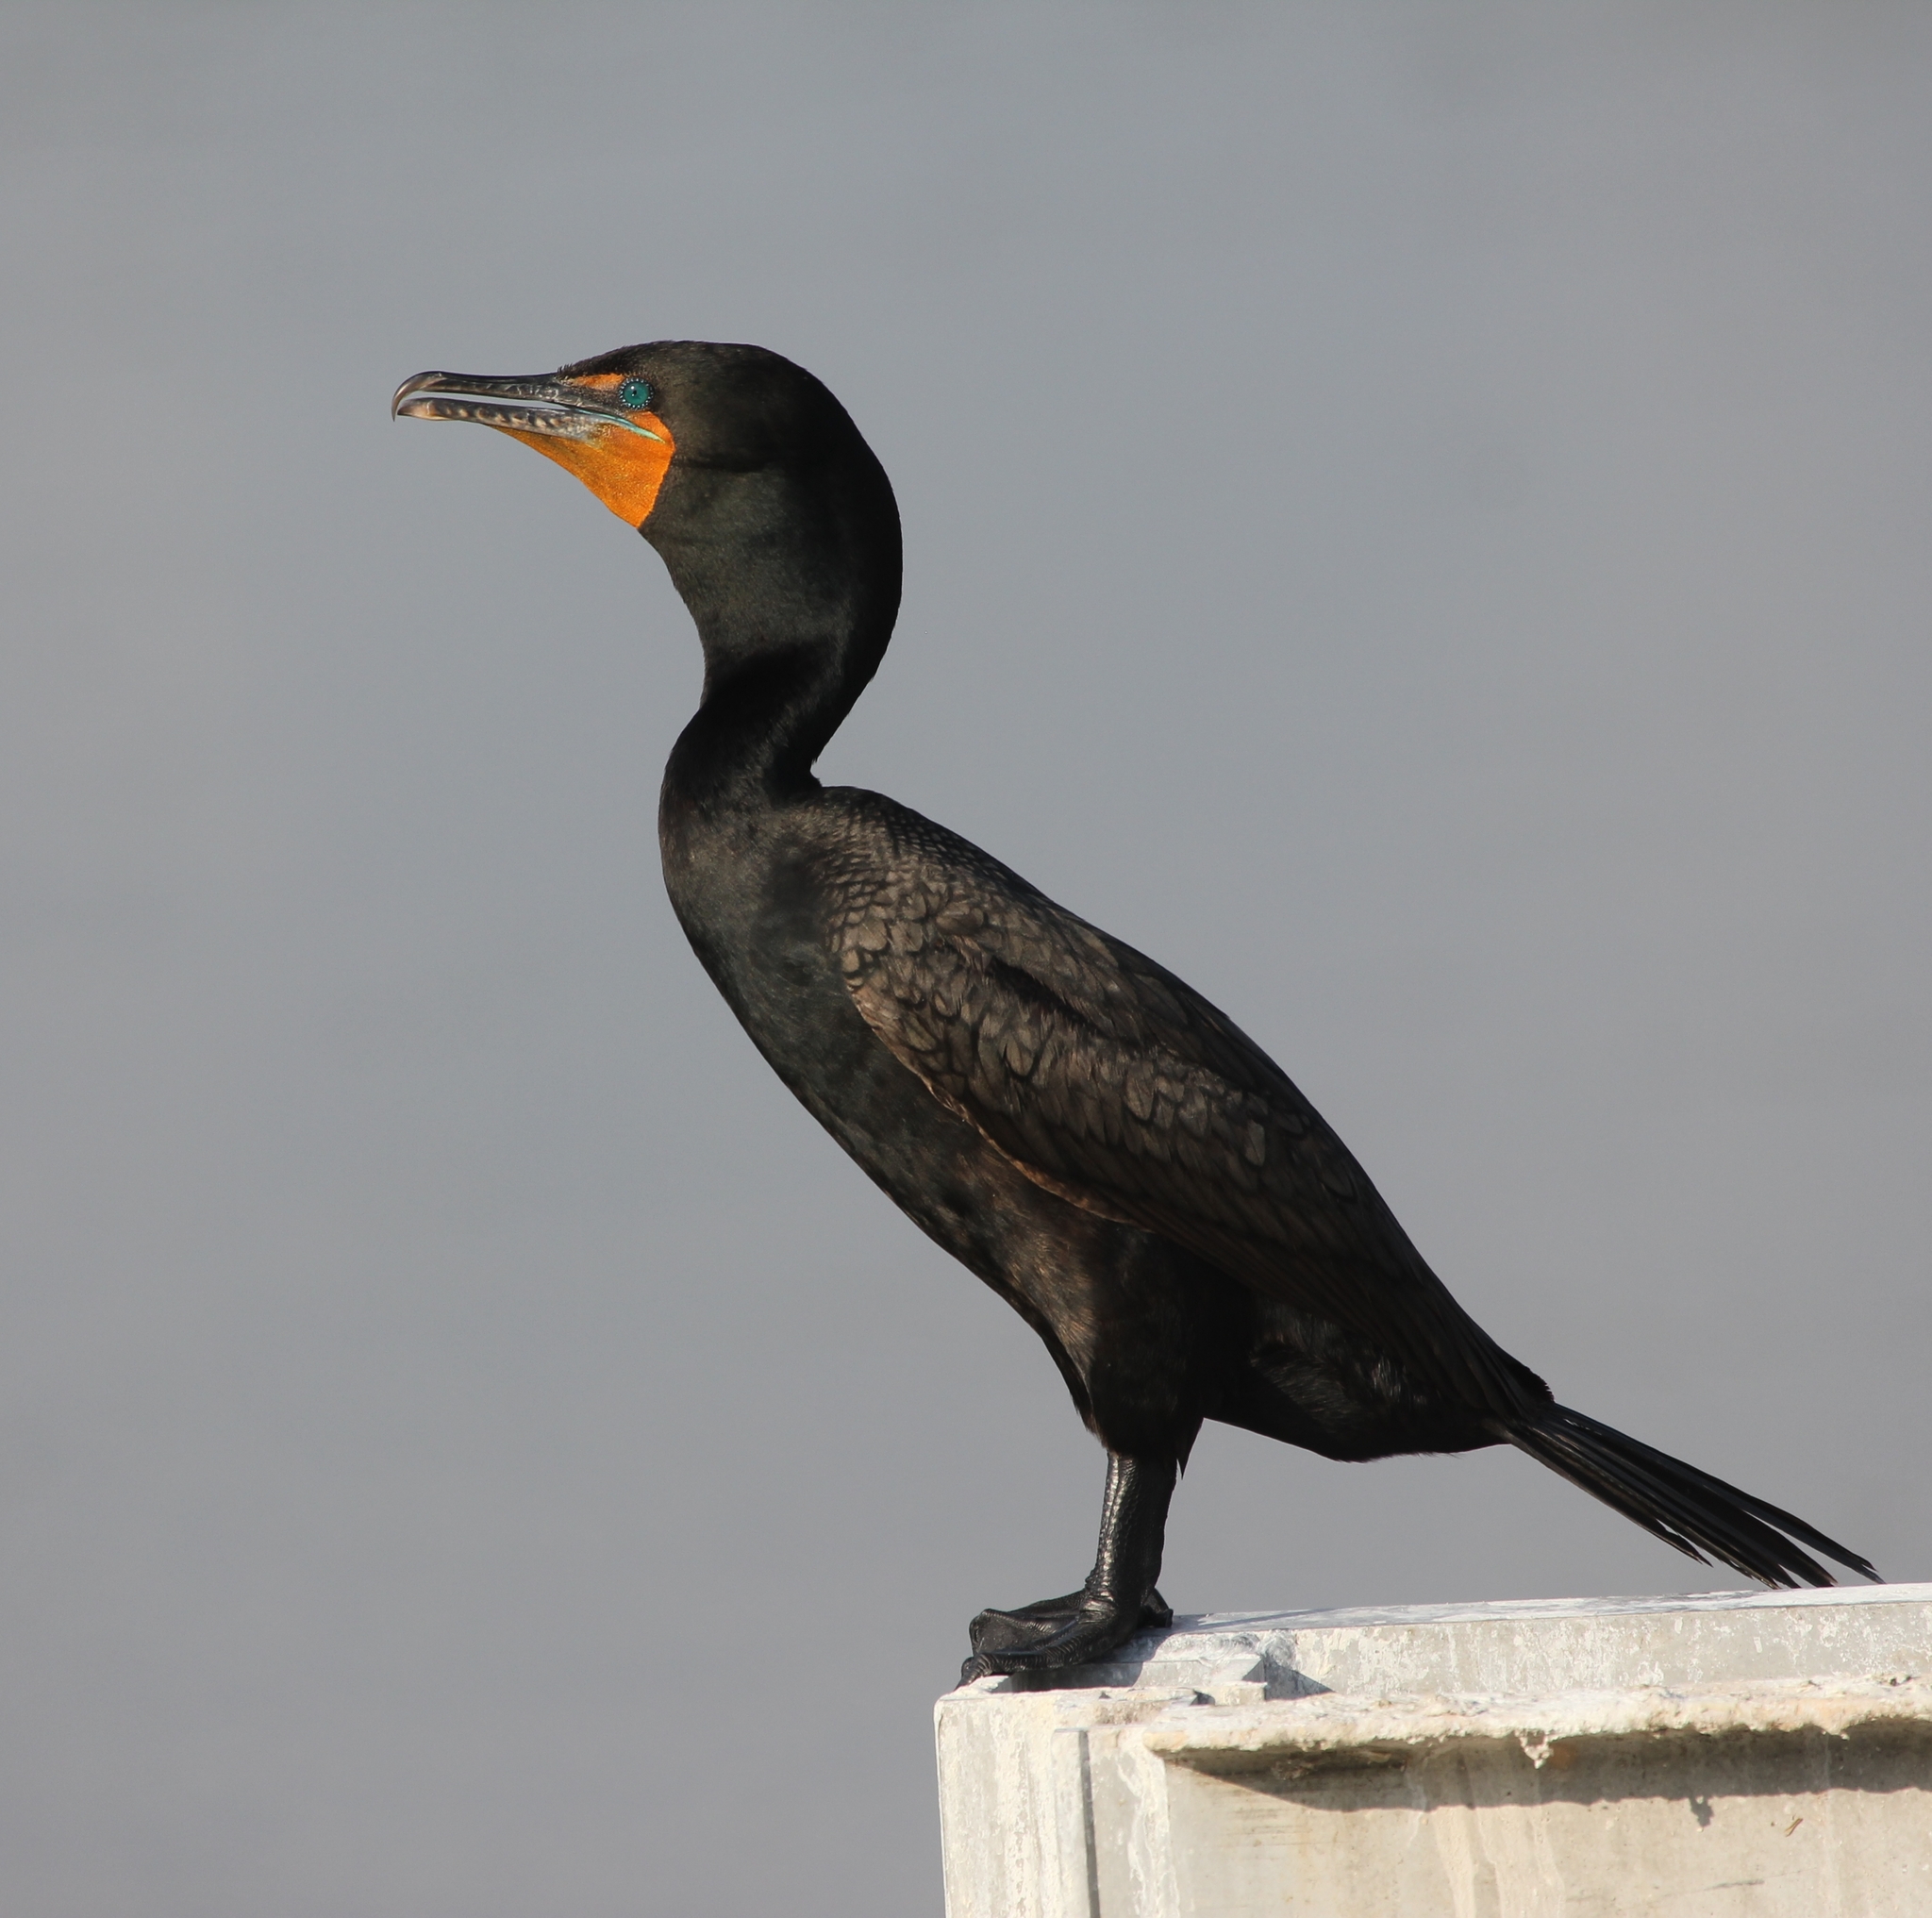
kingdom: Animalia
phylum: Chordata
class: Aves
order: Suliformes
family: Phalacrocoracidae
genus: Phalacrocorax
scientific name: Phalacrocorax auritus
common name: Double-crested cormorant
